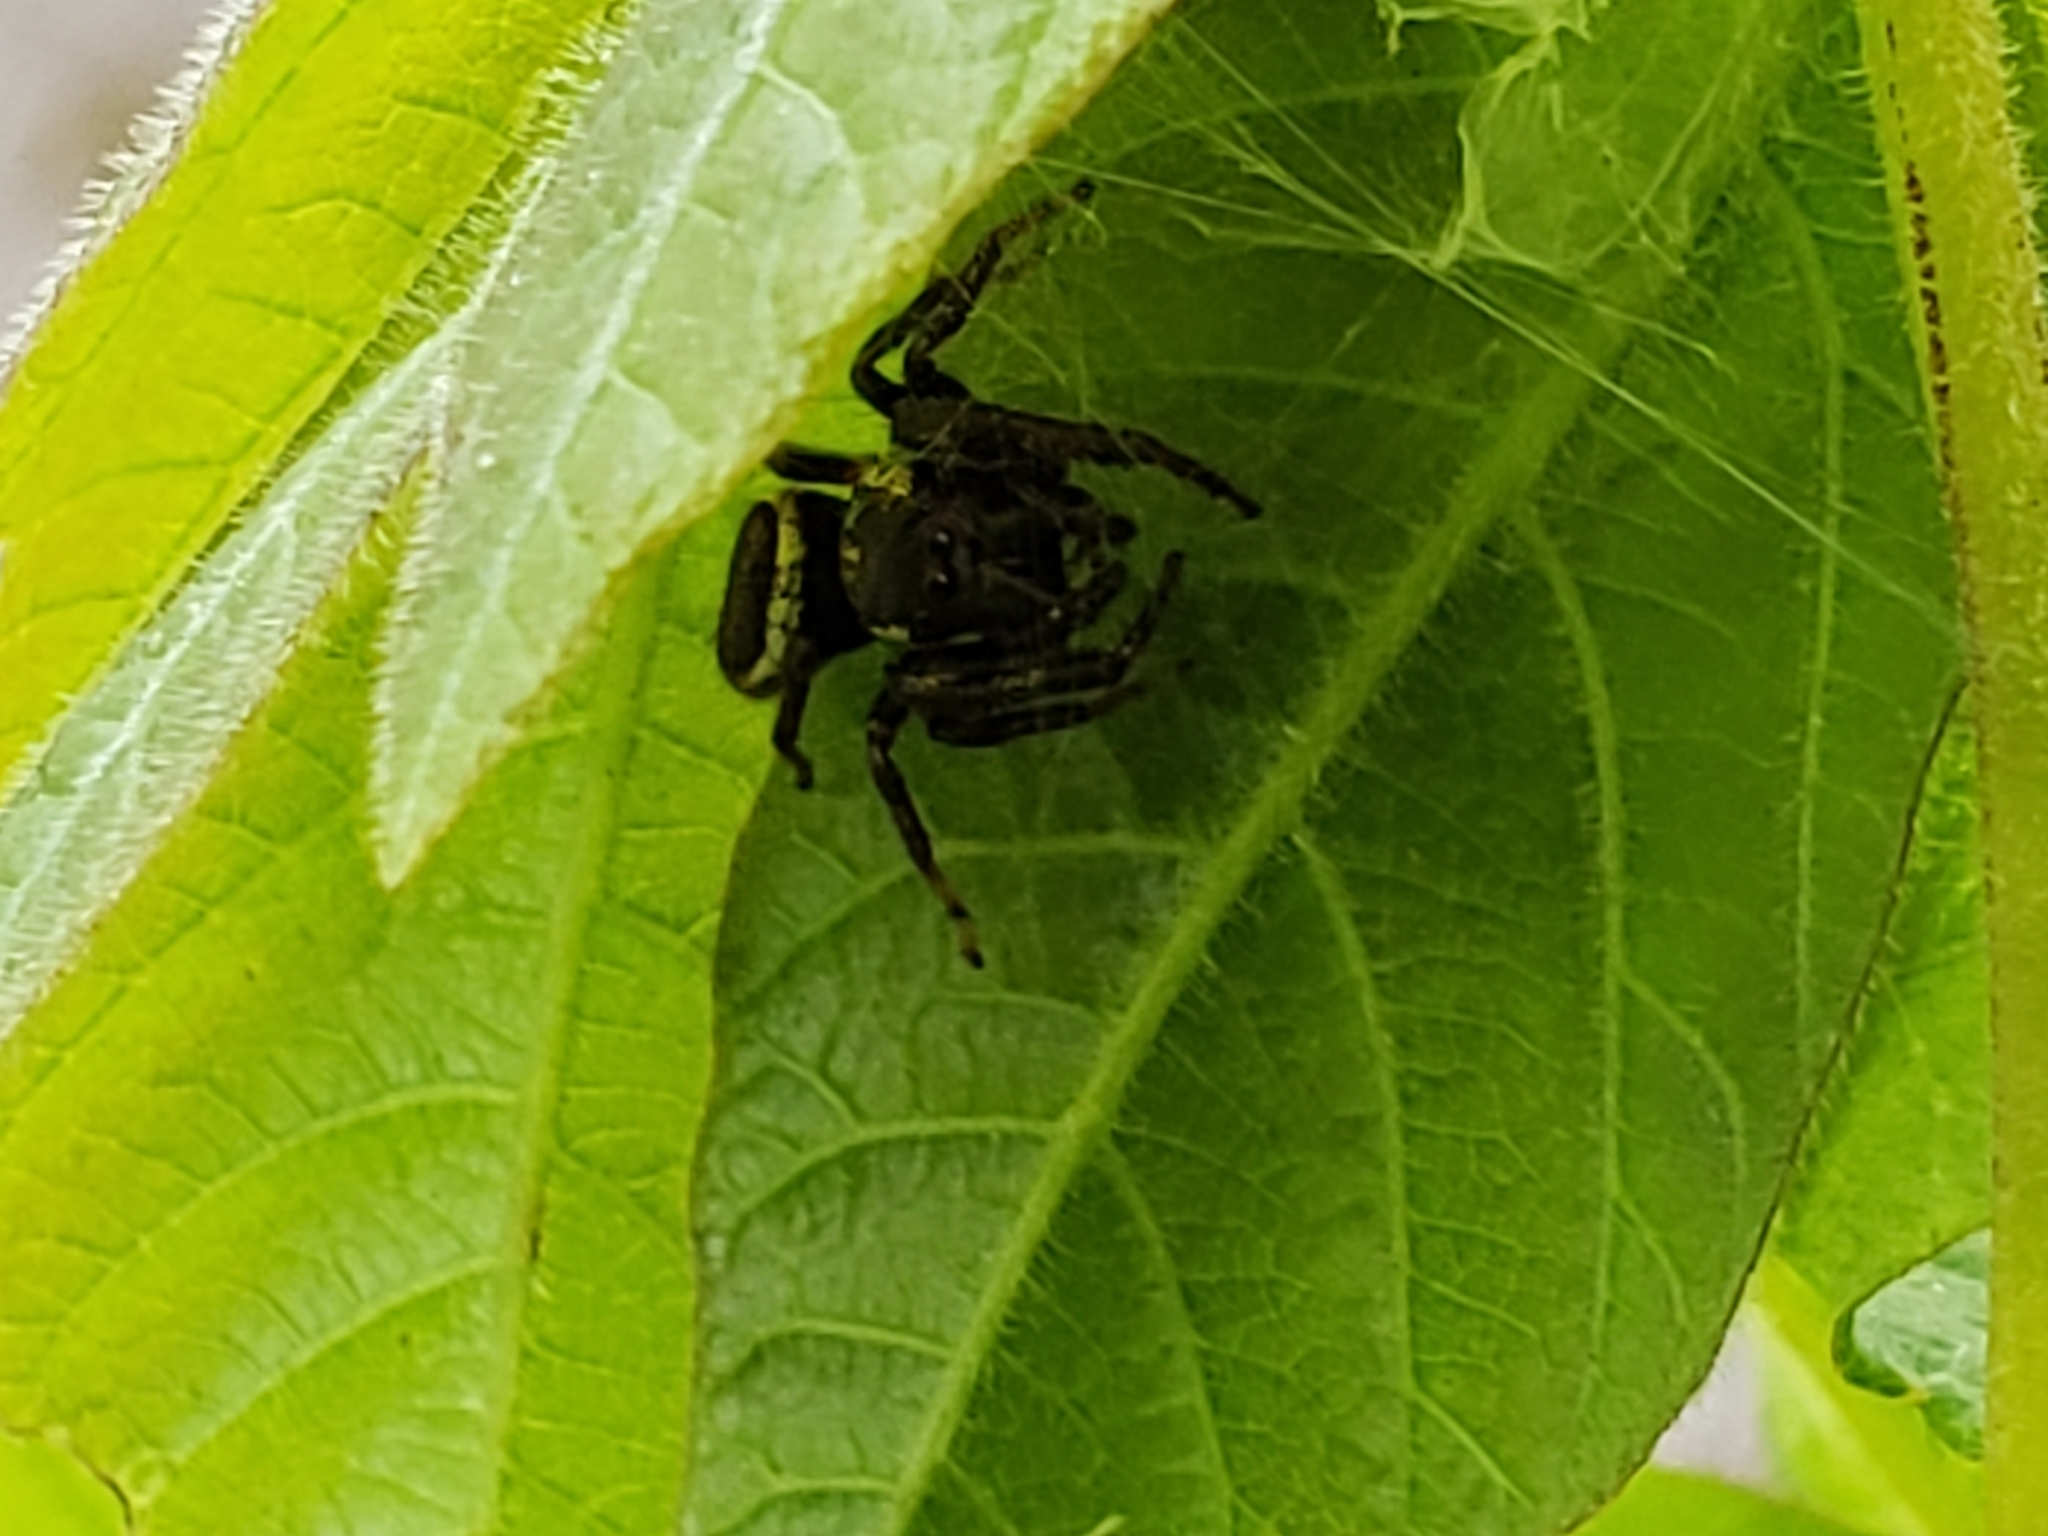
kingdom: Animalia
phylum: Arthropoda
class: Arachnida
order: Araneae
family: Salticidae
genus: Eris
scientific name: Eris militaris
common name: Bronze jumper
